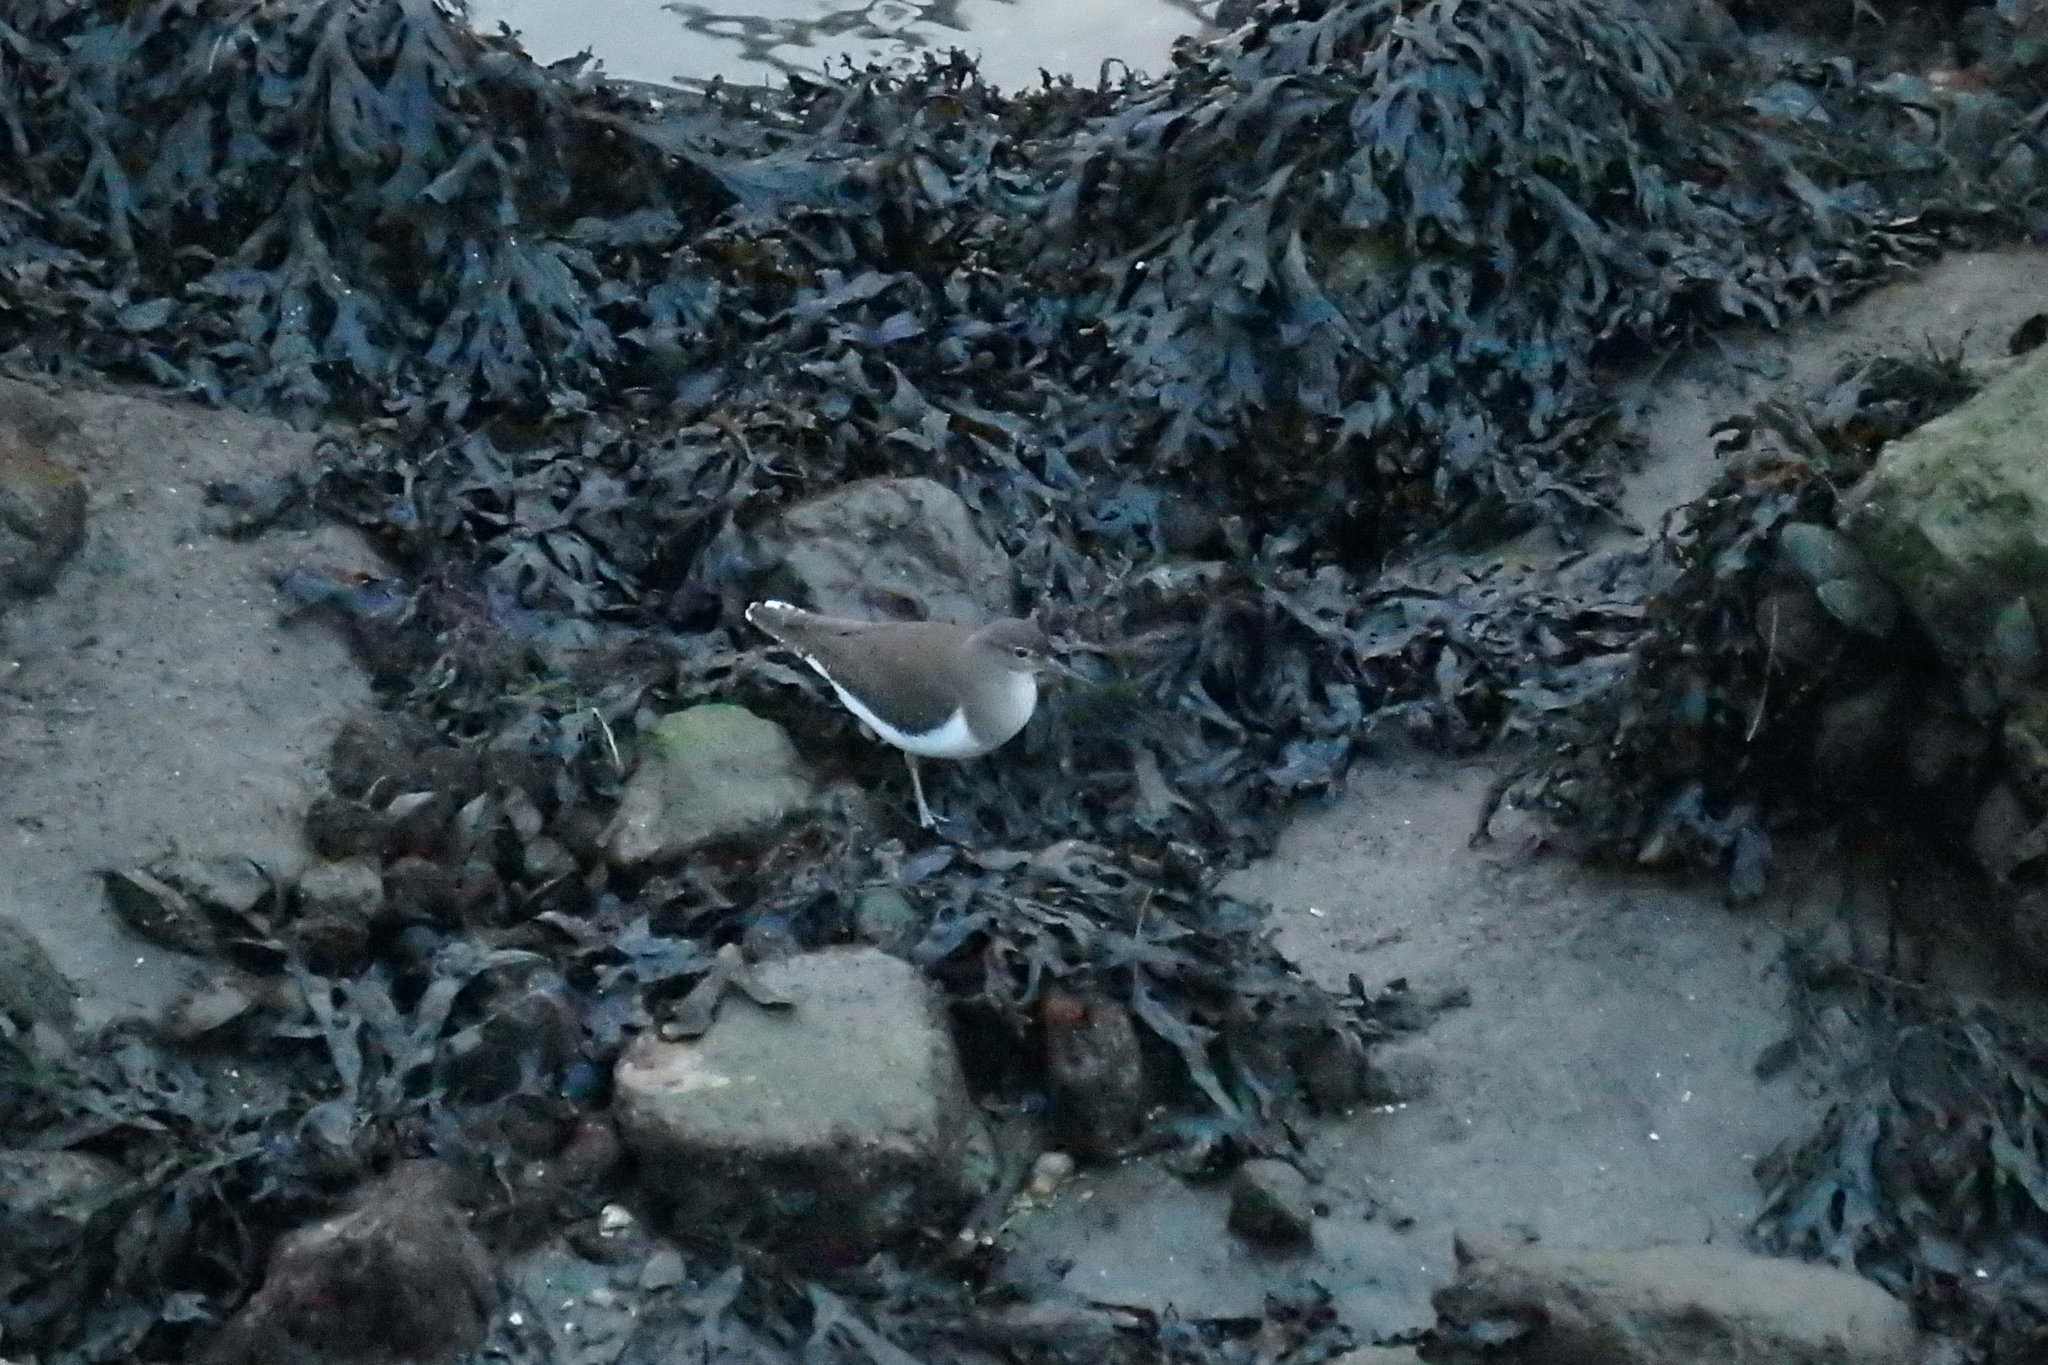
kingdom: Animalia
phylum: Chordata
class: Aves
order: Charadriiformes
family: Scolopacidae
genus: Actitis
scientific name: Actitis hypoleucos
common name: Common sandpiper
